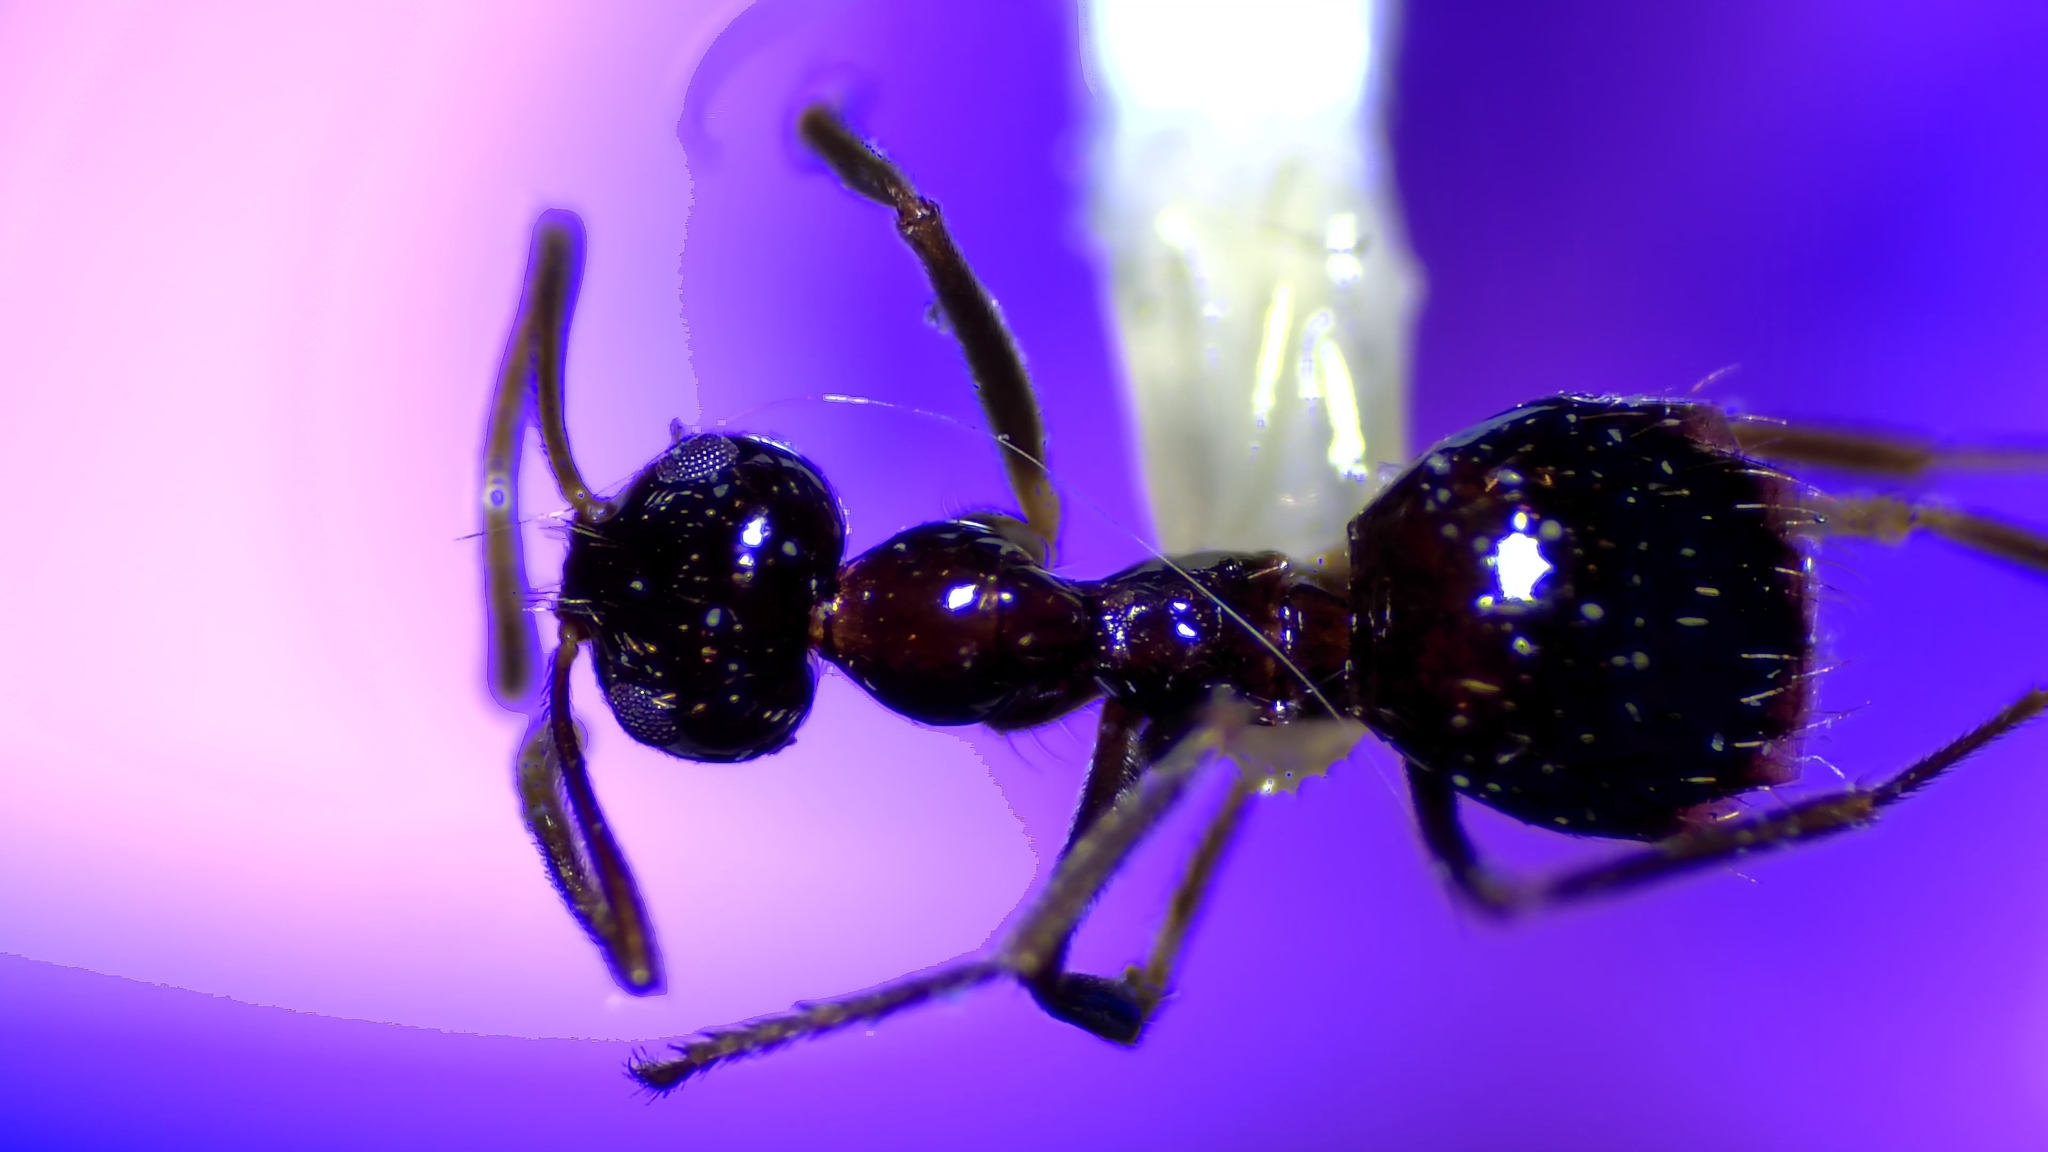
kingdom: Animalia
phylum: Arthropoda
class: Insecta
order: Hymenoptera
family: Formicidae
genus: Prenolepis
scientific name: Prenolepis imparis
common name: Small honey ant
